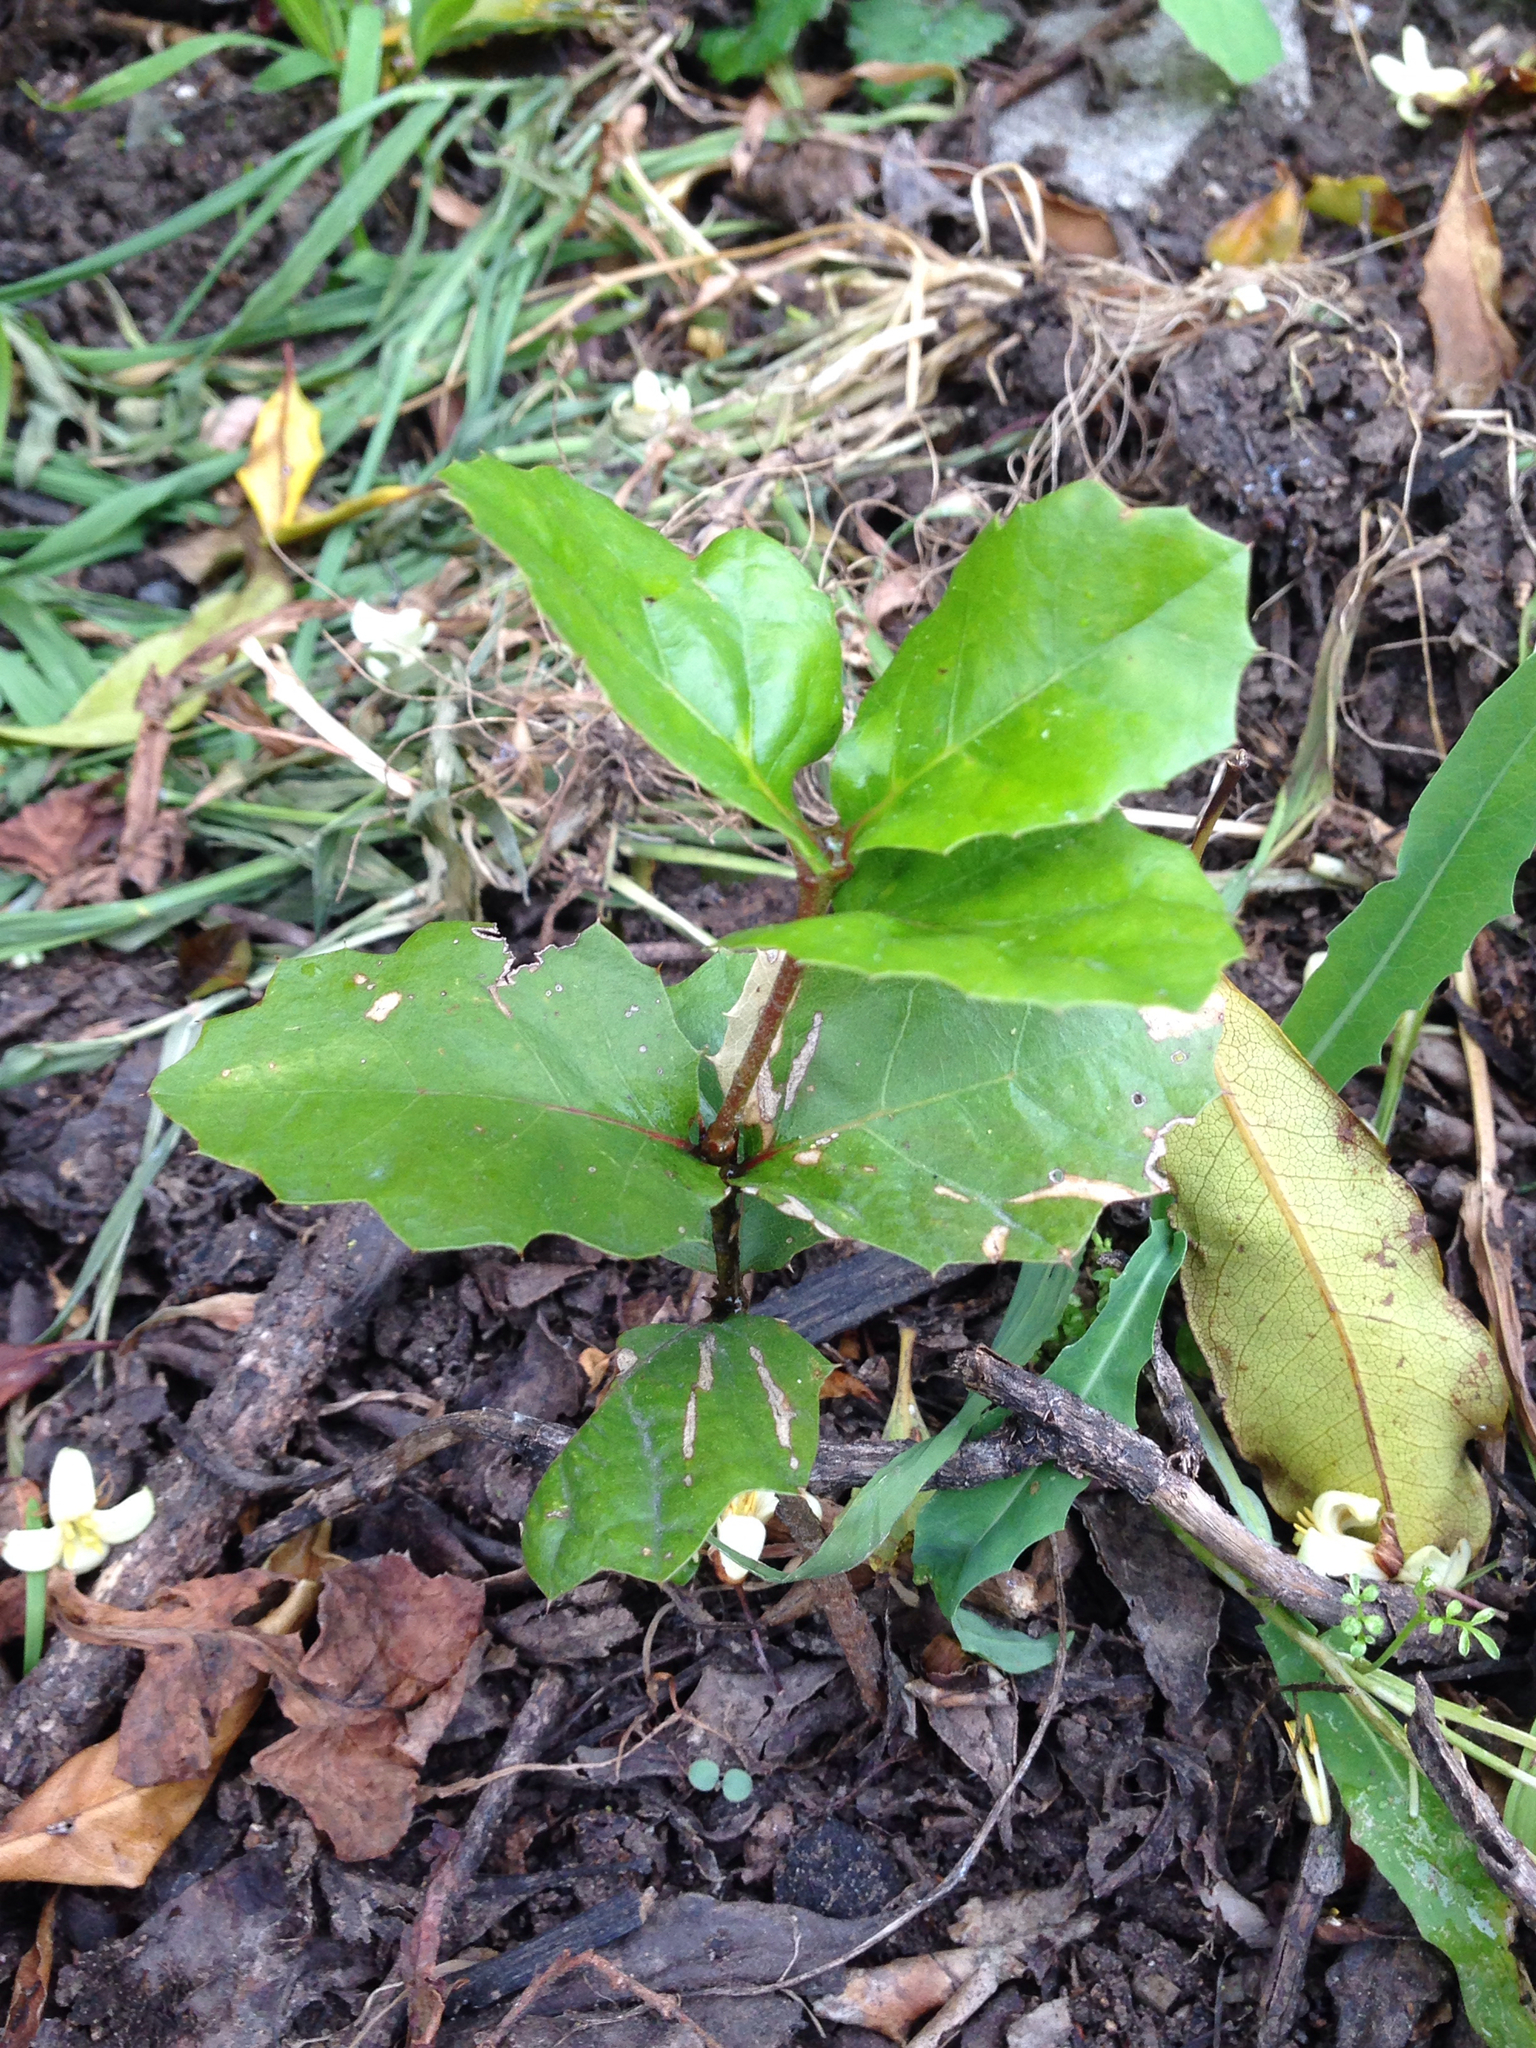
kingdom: Plantae
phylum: Tracheophyta
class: Magnoliopsida
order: Fagales
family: Fagaceae
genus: Quercus
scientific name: Quercus agrifolia
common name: California live oak
